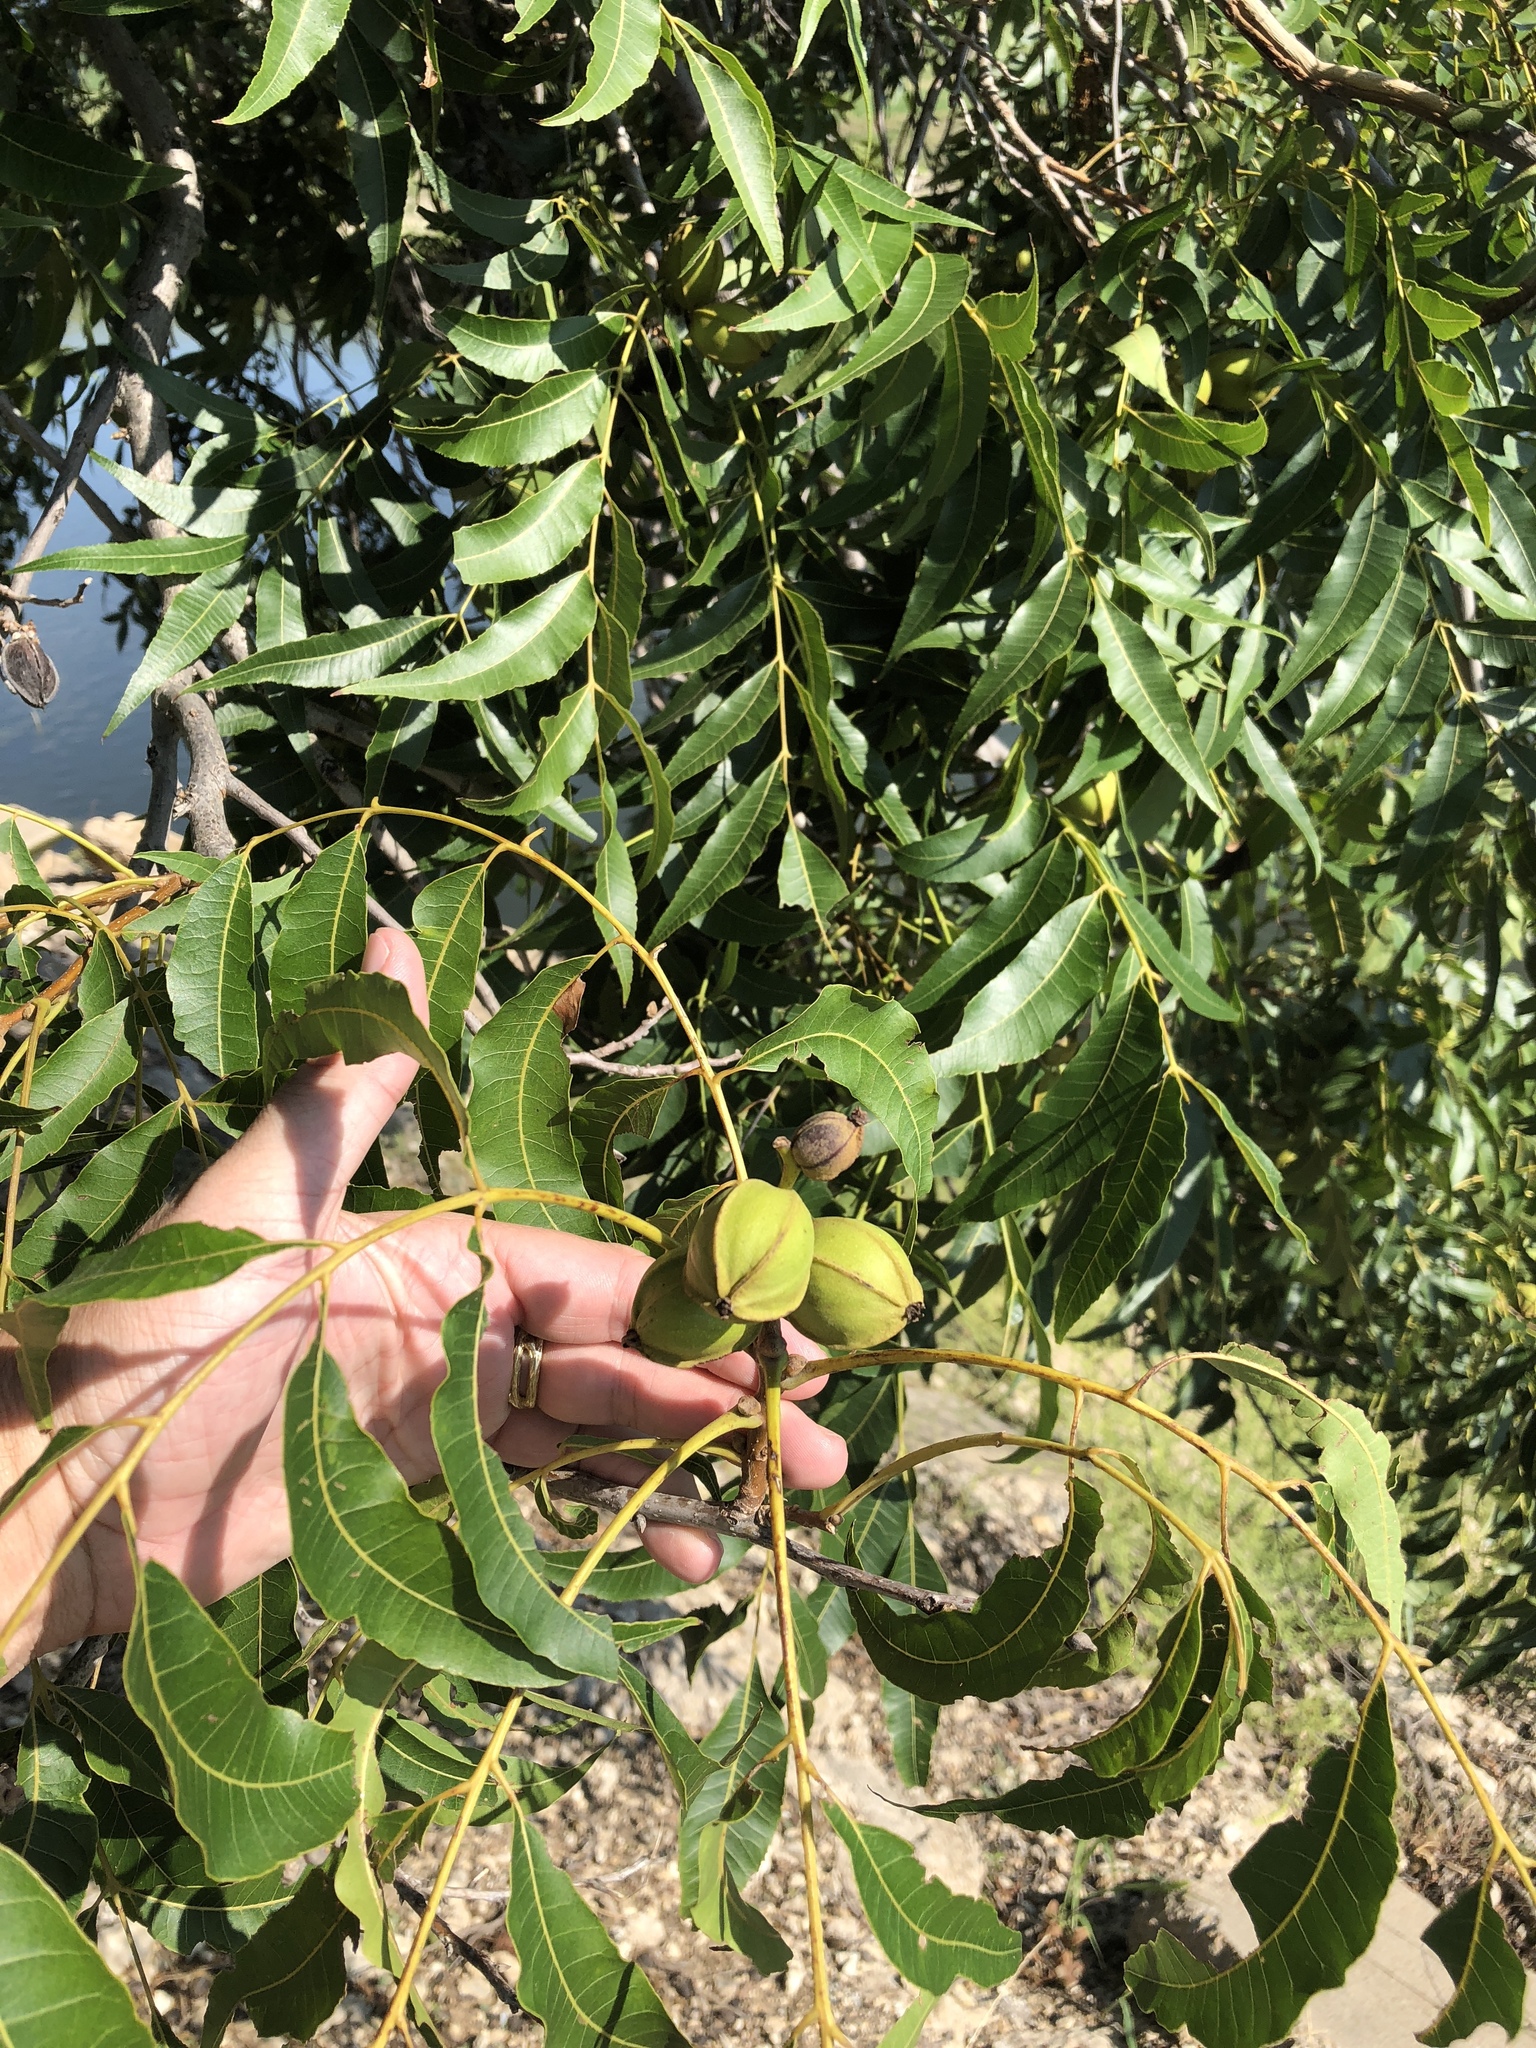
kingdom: Plantae
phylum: Tracheophyta
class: Magnoliopsida
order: Fagales
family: Juglandaceae
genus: Carya
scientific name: Carya illinoinensis
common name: Pecan
